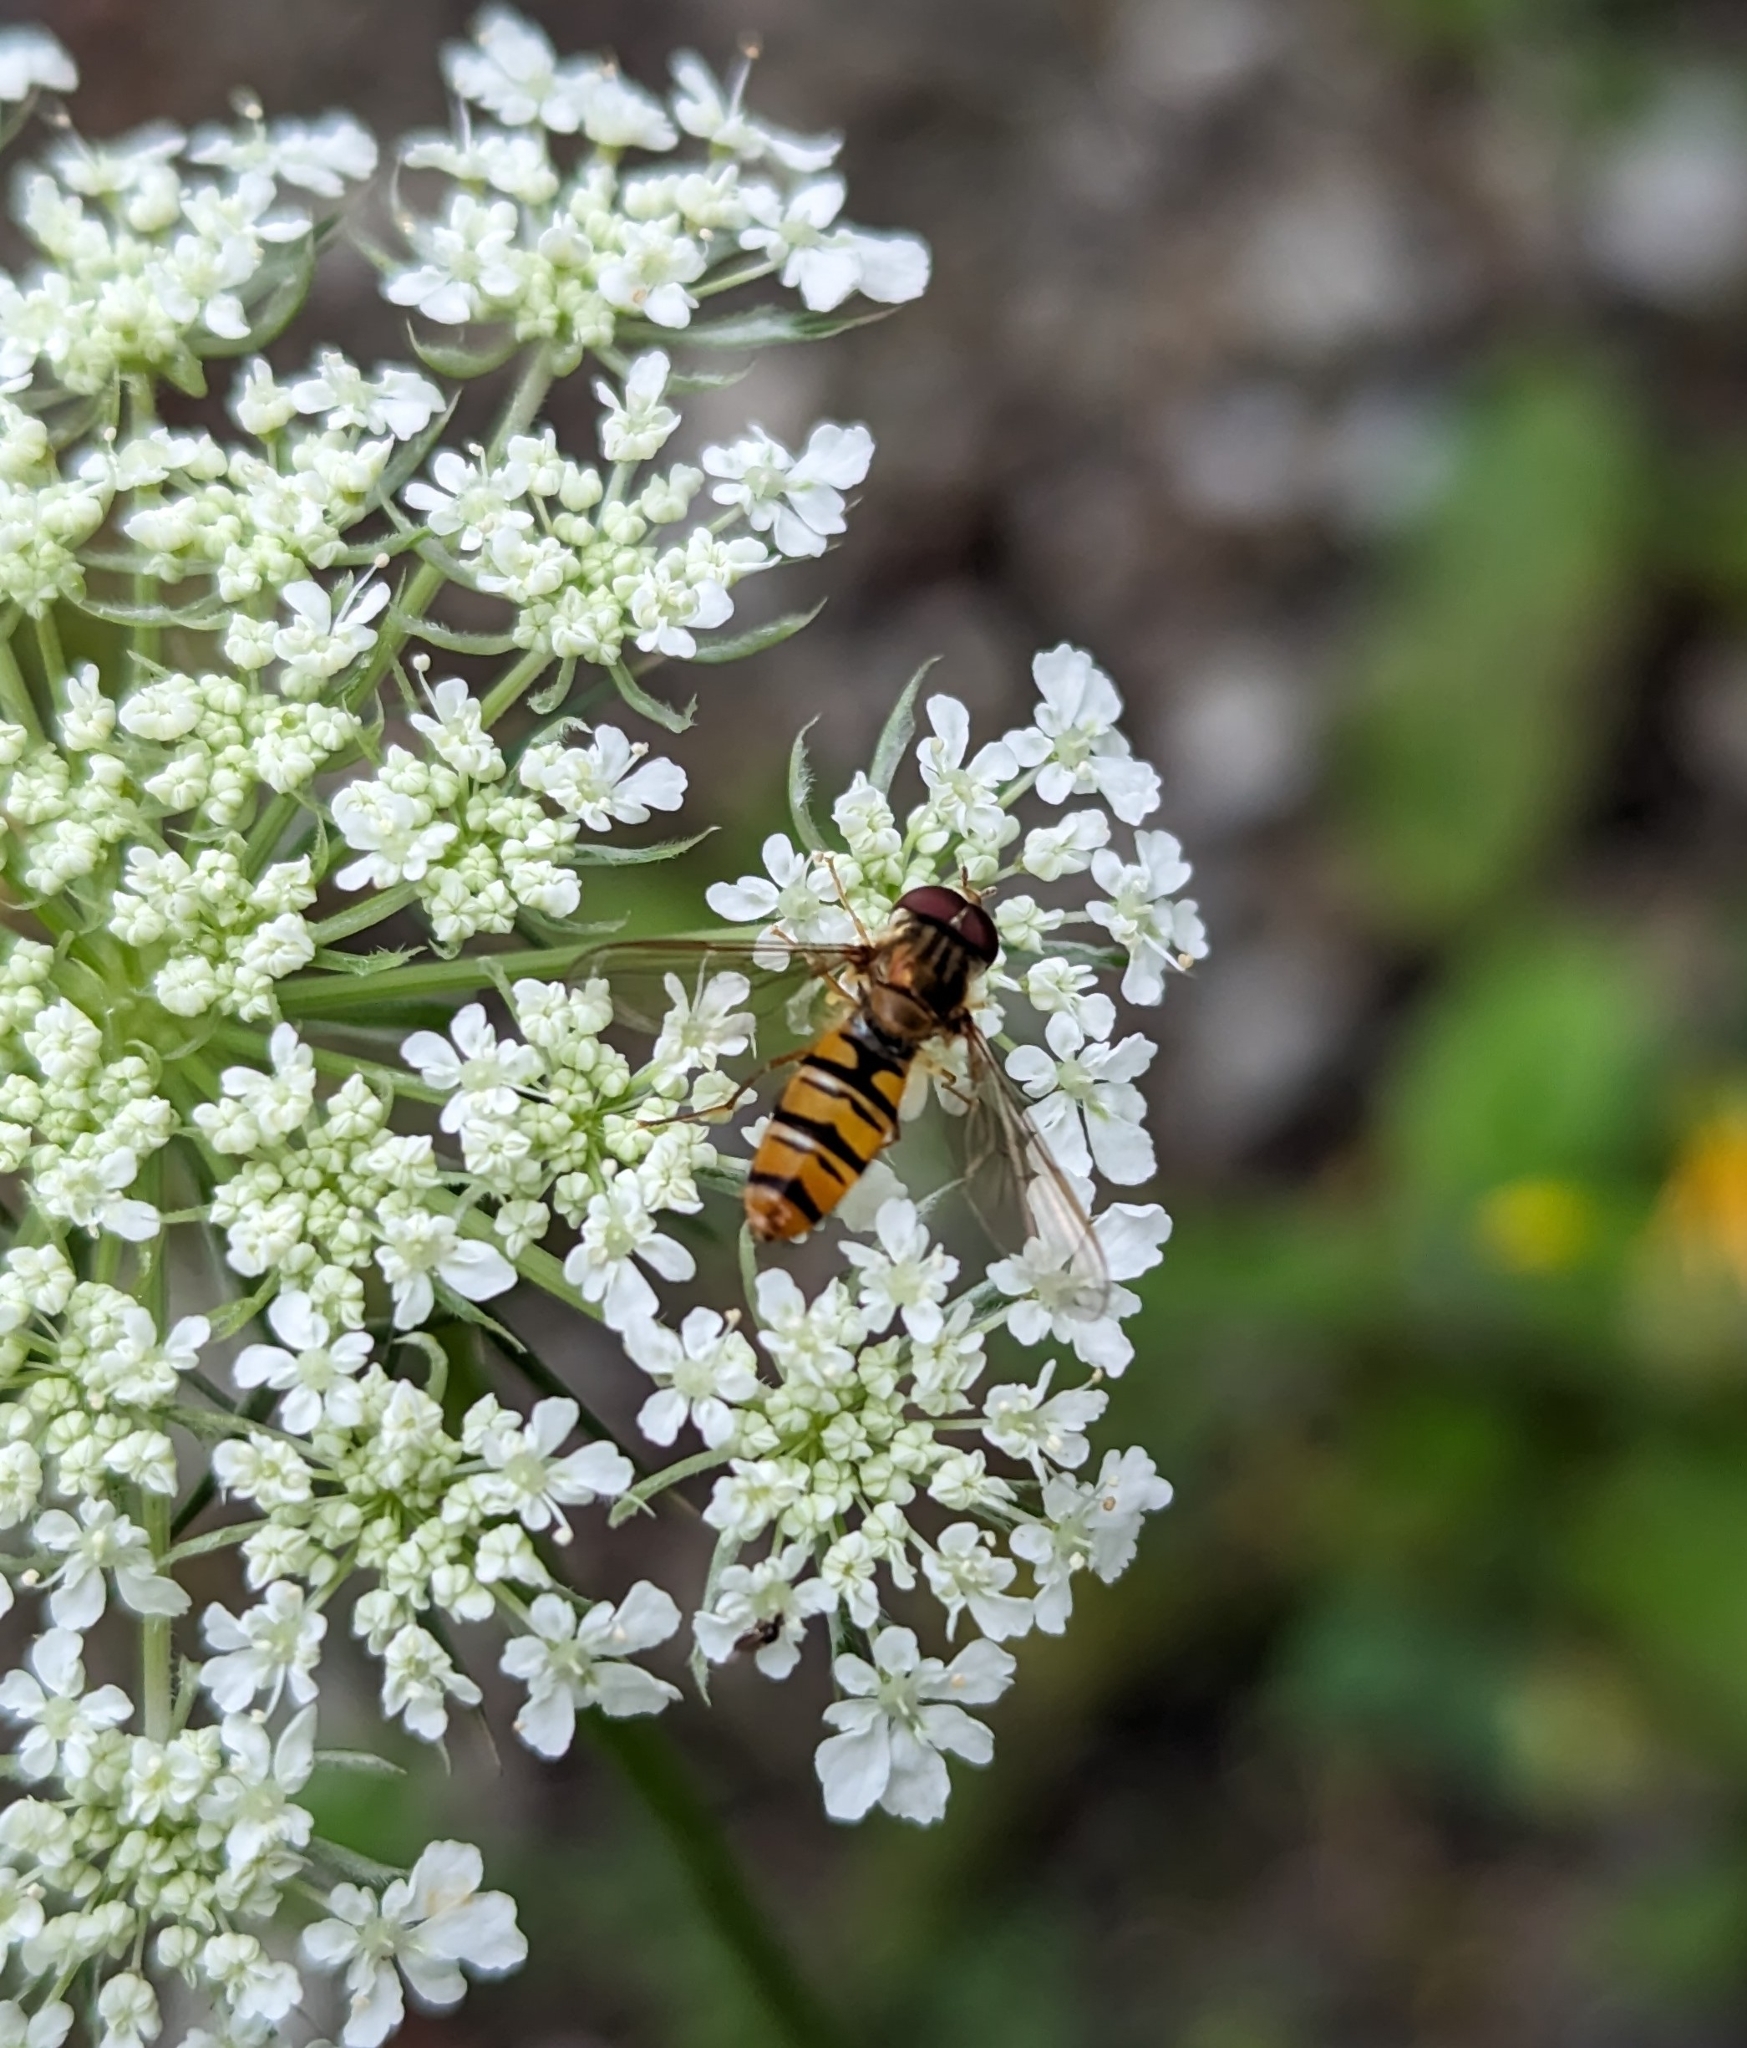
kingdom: Animalia
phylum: Arthropoda
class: Insecta
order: Diptera
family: Syrphidae
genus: Episyrphus
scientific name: Episyrphus balteatus
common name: Marmalade hoverfly
